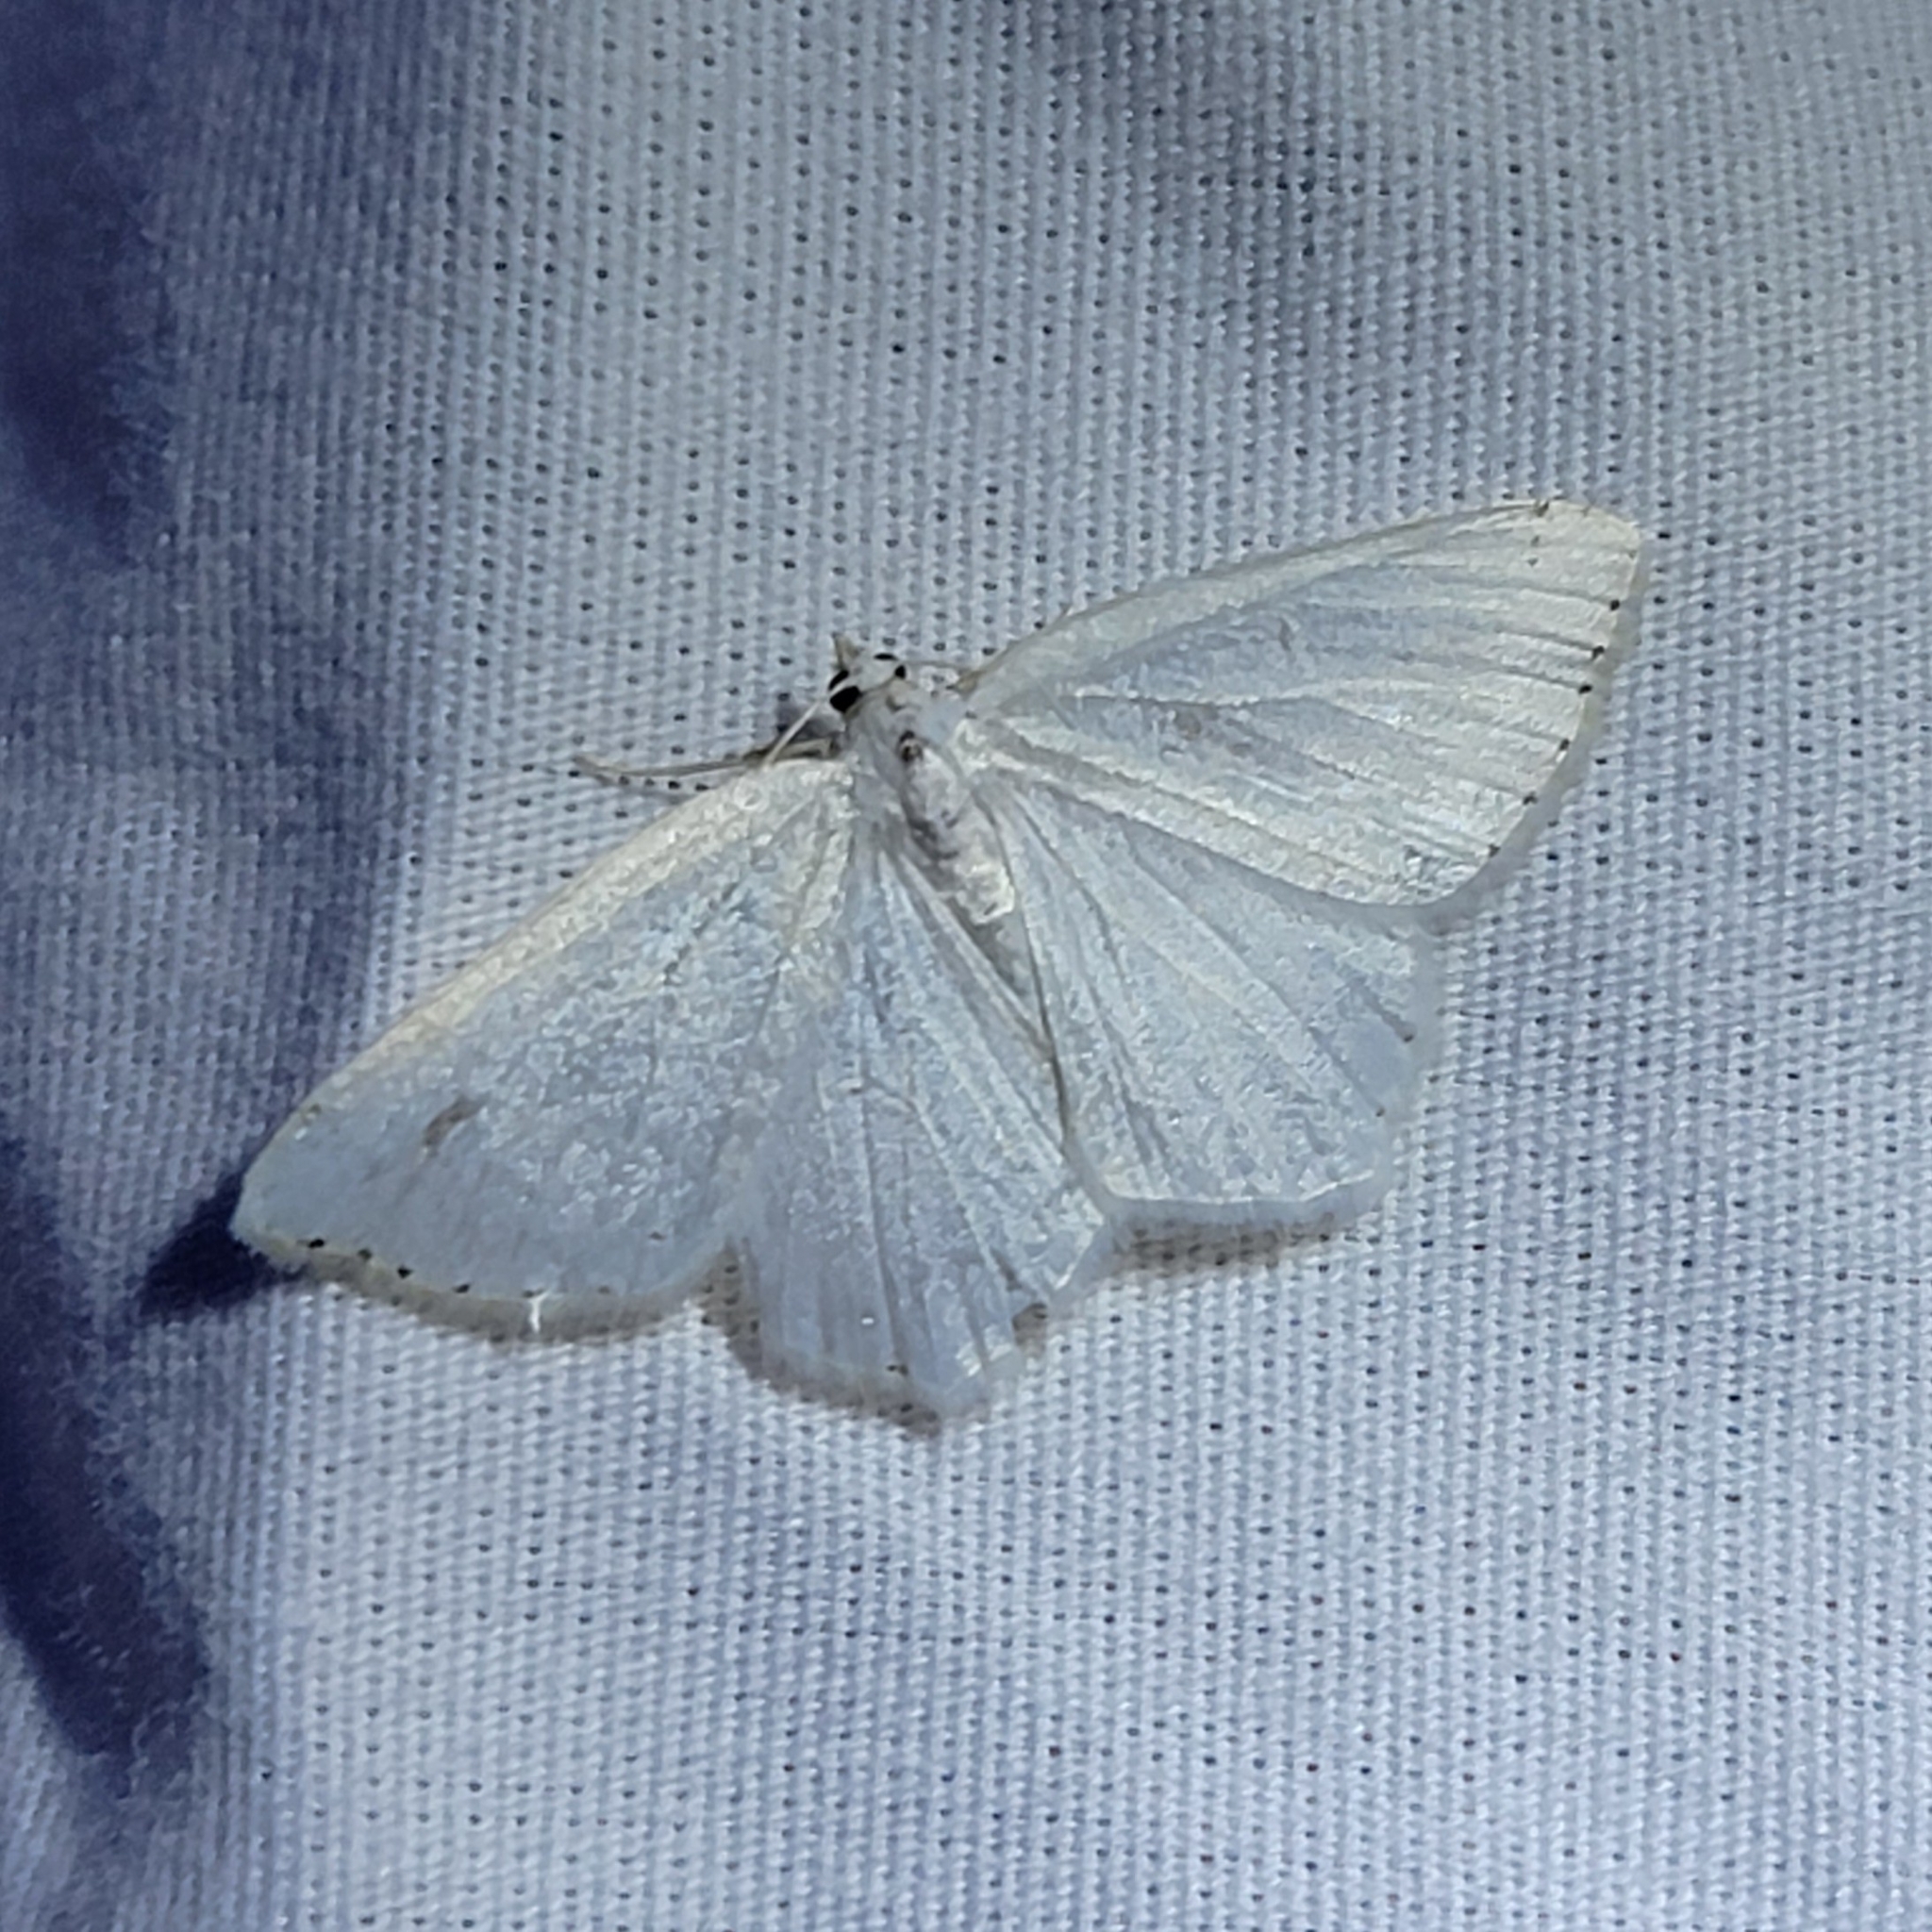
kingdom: Animalia
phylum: Arthropoda
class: Insecta
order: Lepidoptera
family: Geometridae
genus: Macaria
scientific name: Macaria pustularia
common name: Lesser maple spanworm moth
